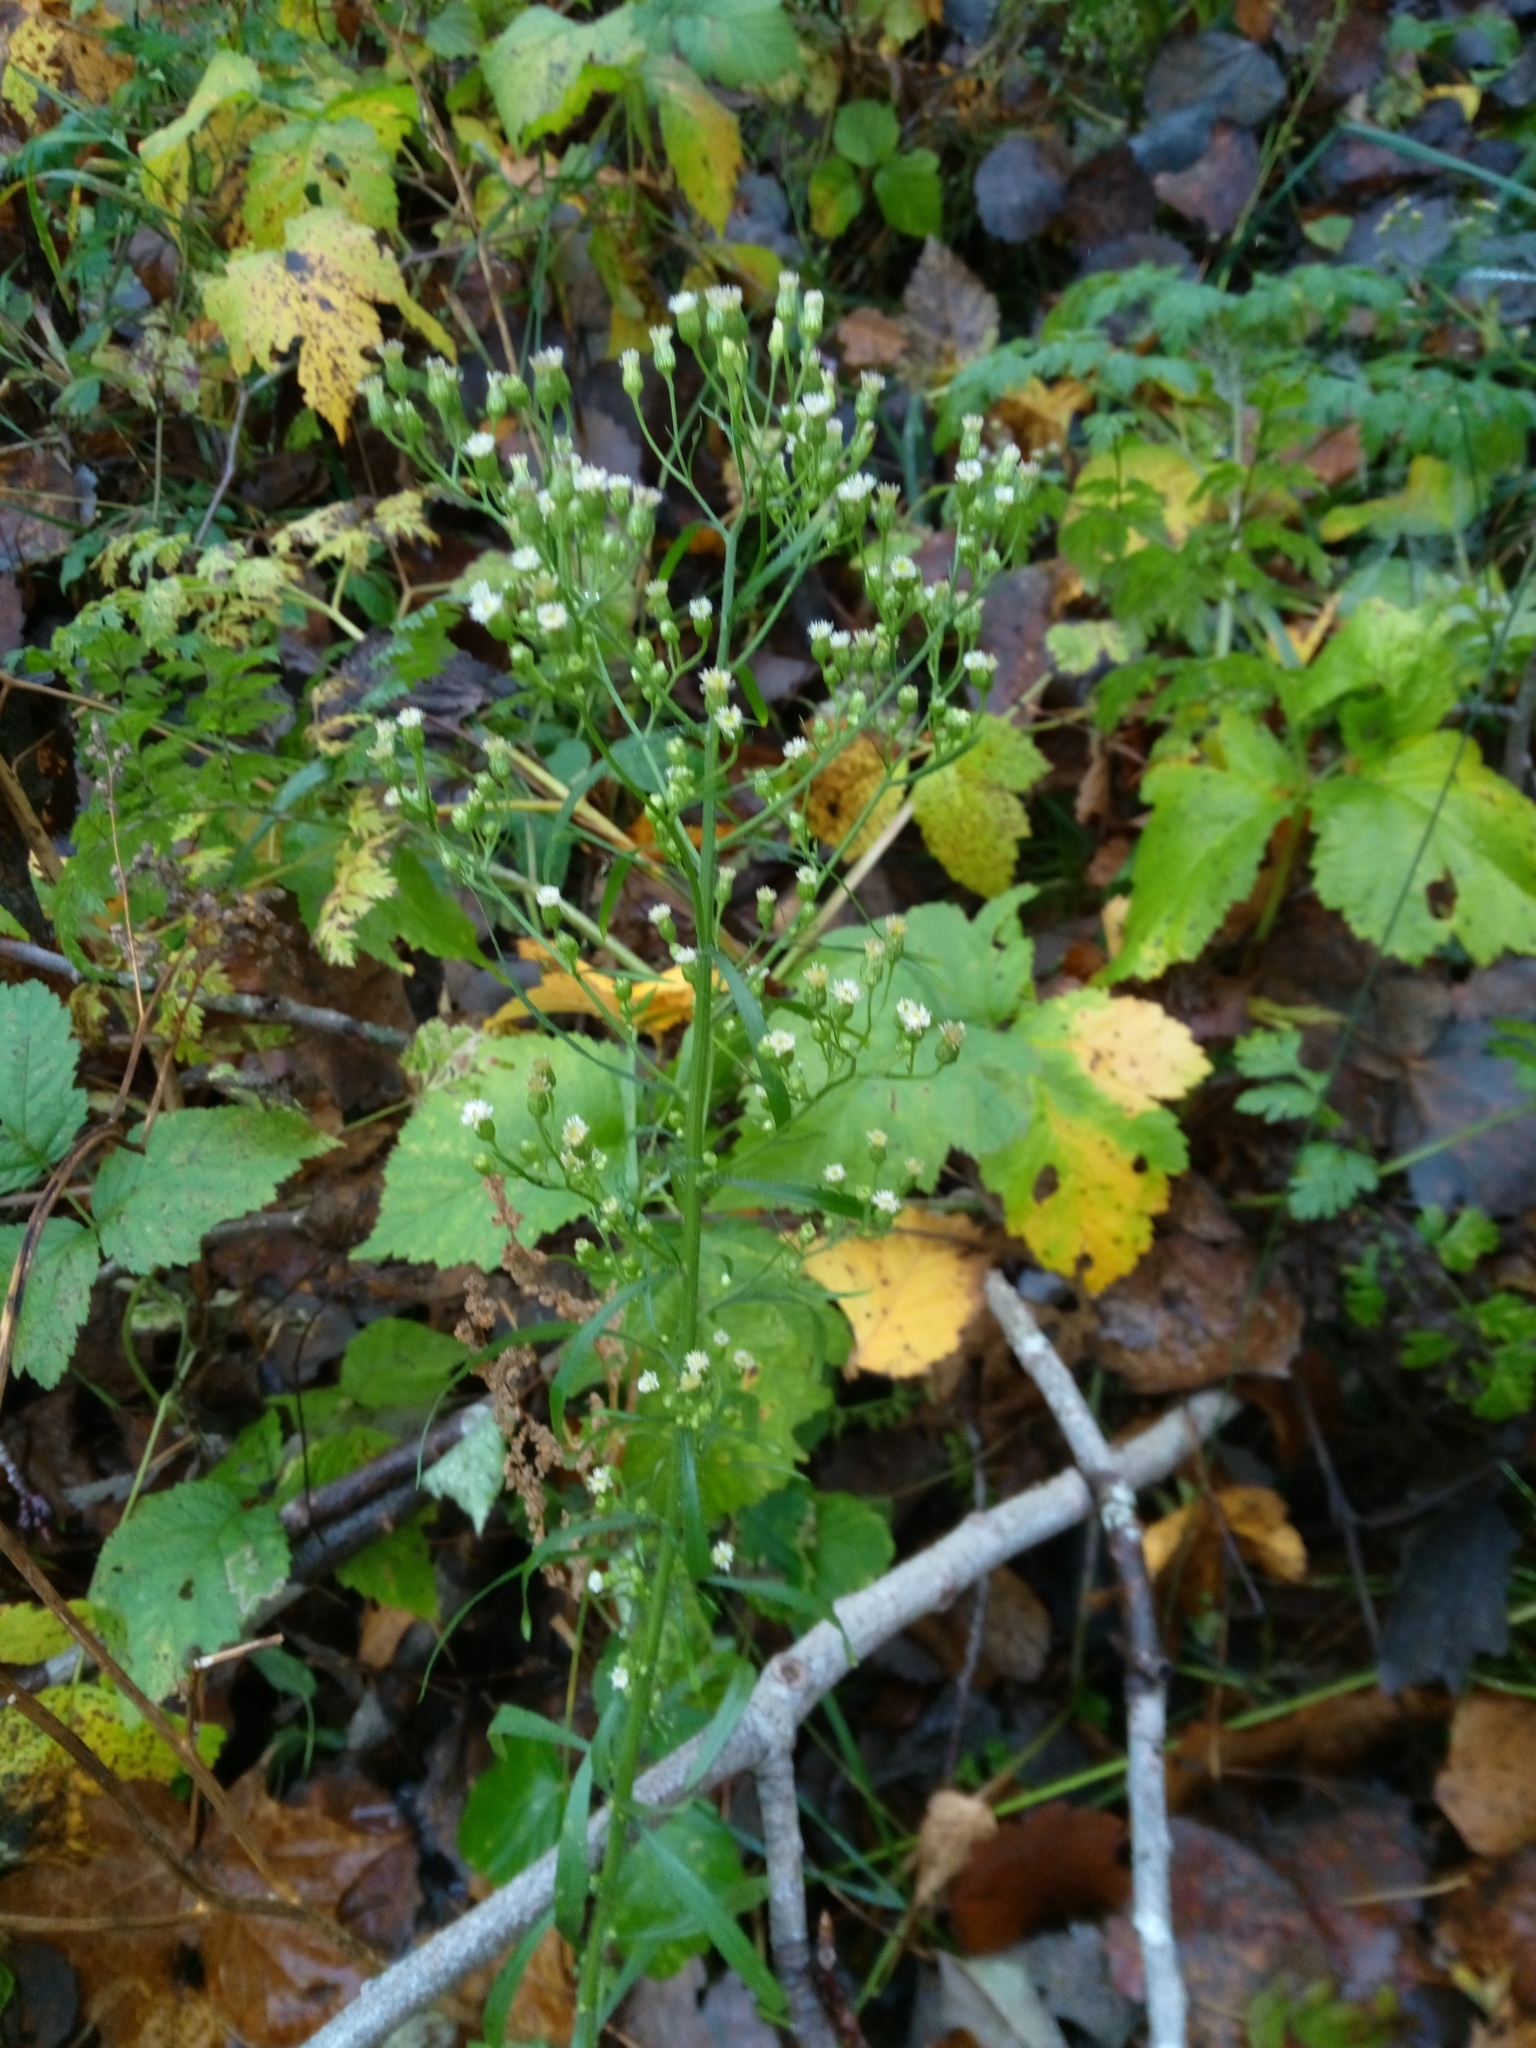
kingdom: Plantae
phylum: Tracheophyta
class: Magnoliopsida
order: Asterales
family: Asteraceae
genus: Erigeron
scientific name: Erigeron canadensis
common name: Canadian fleabane
